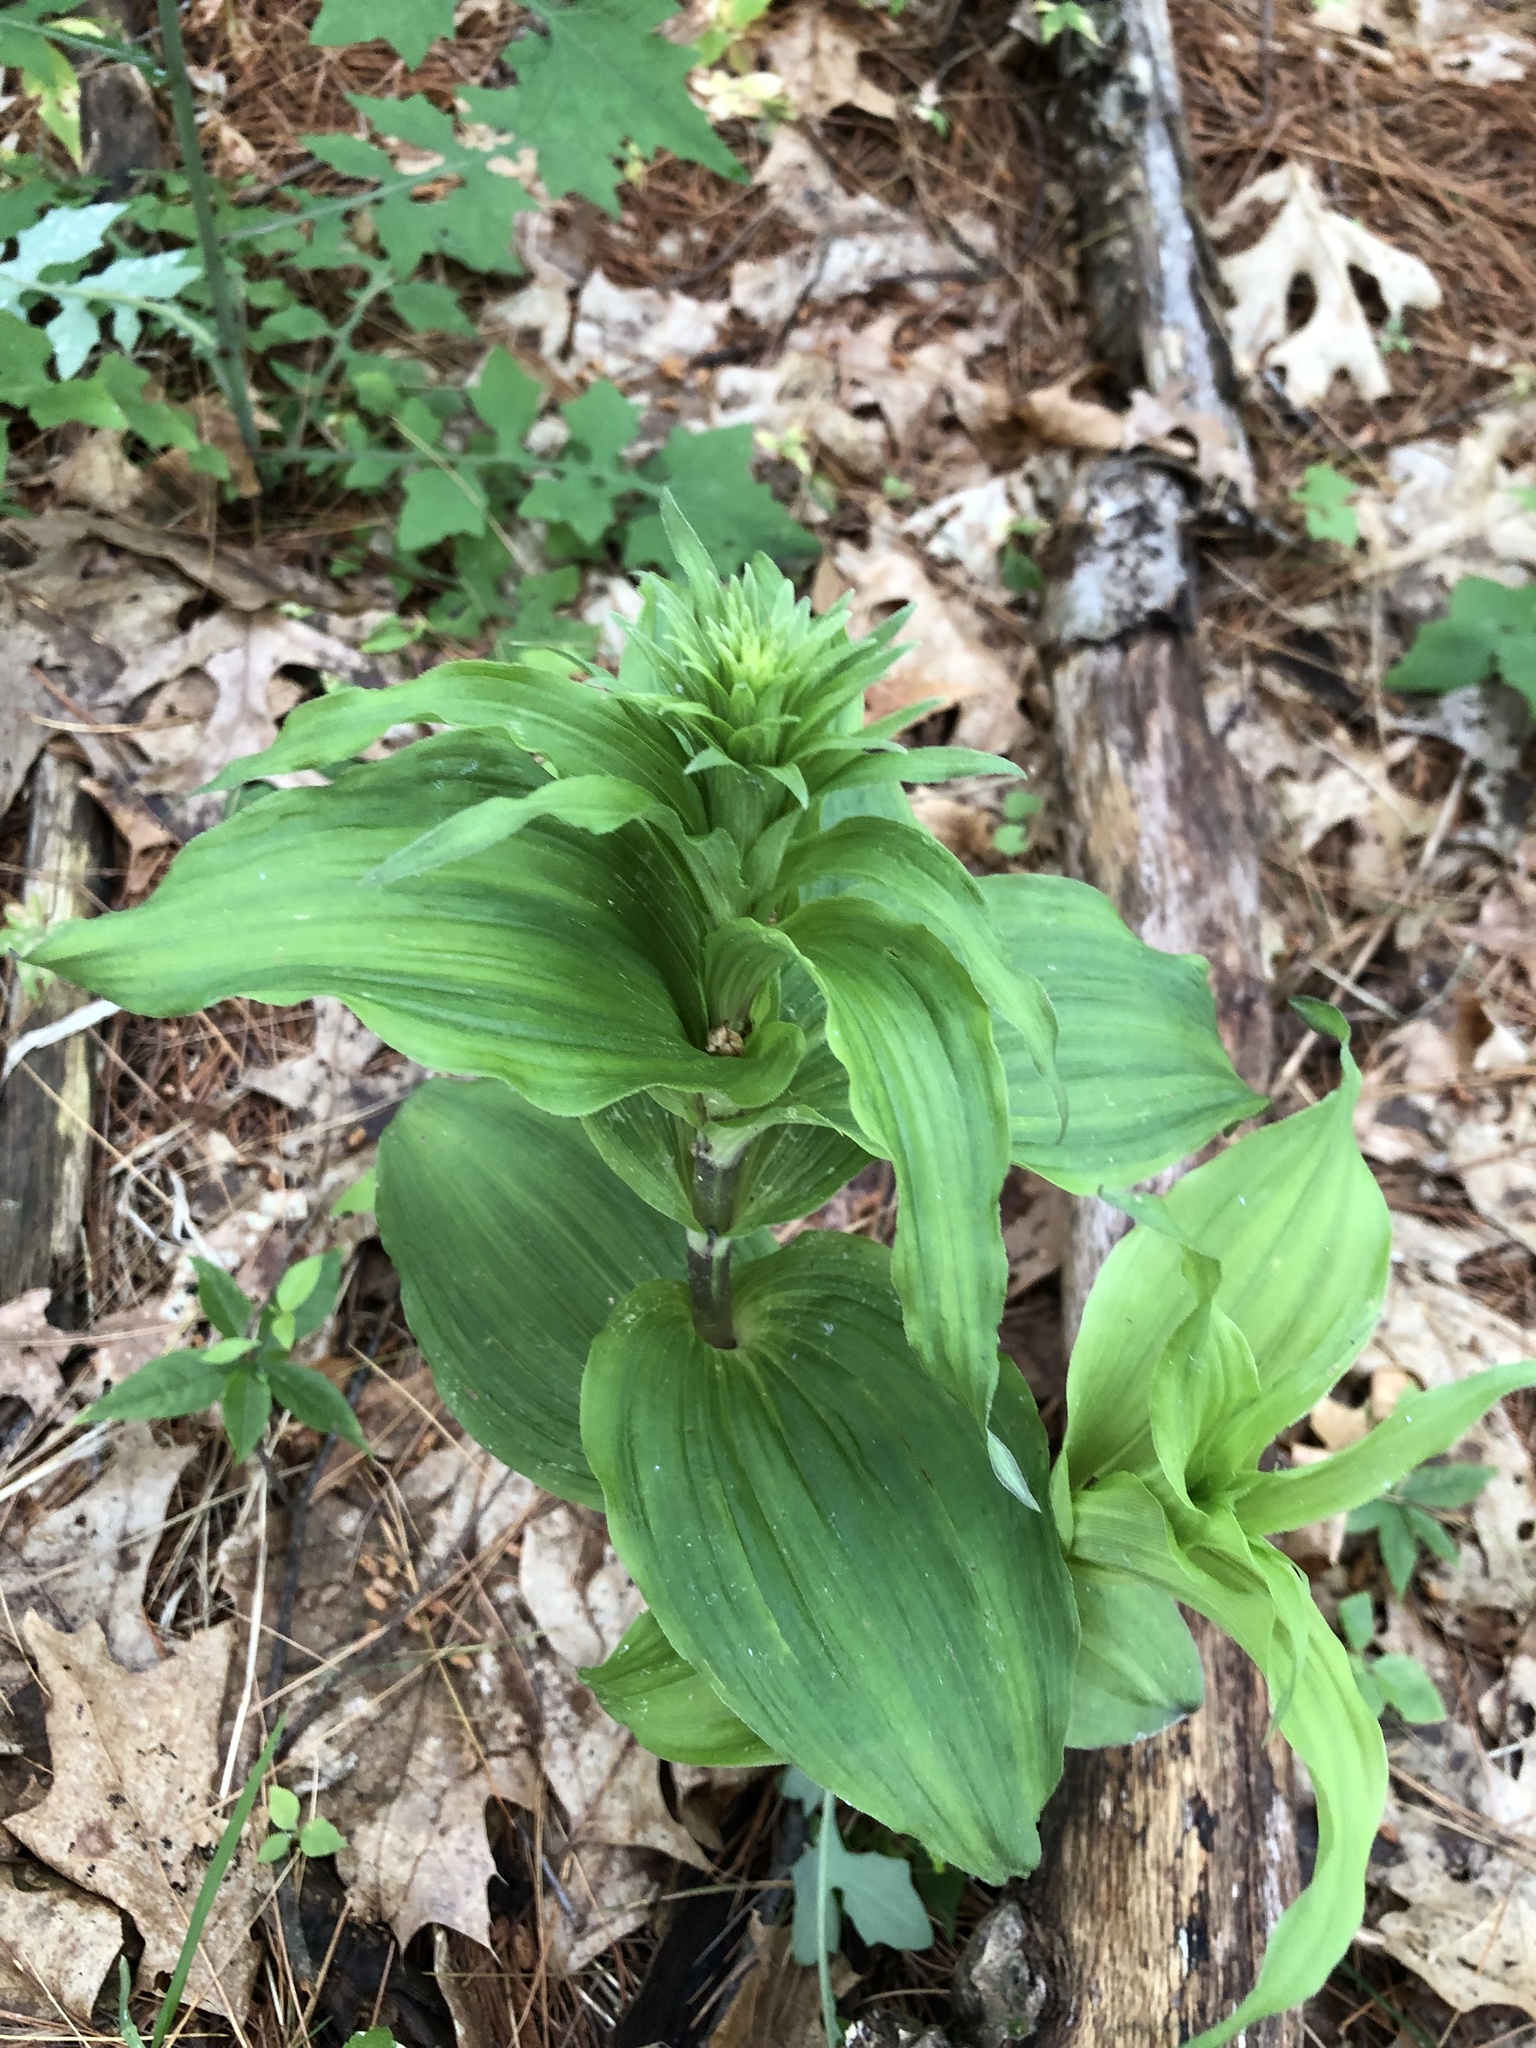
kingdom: Plantae
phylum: Tracheophyta
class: Liliopsida
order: Asparagales
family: Orchidaceae
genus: Epipactis
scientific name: Epipactis helleborine
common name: Broad-leaved helleborine
